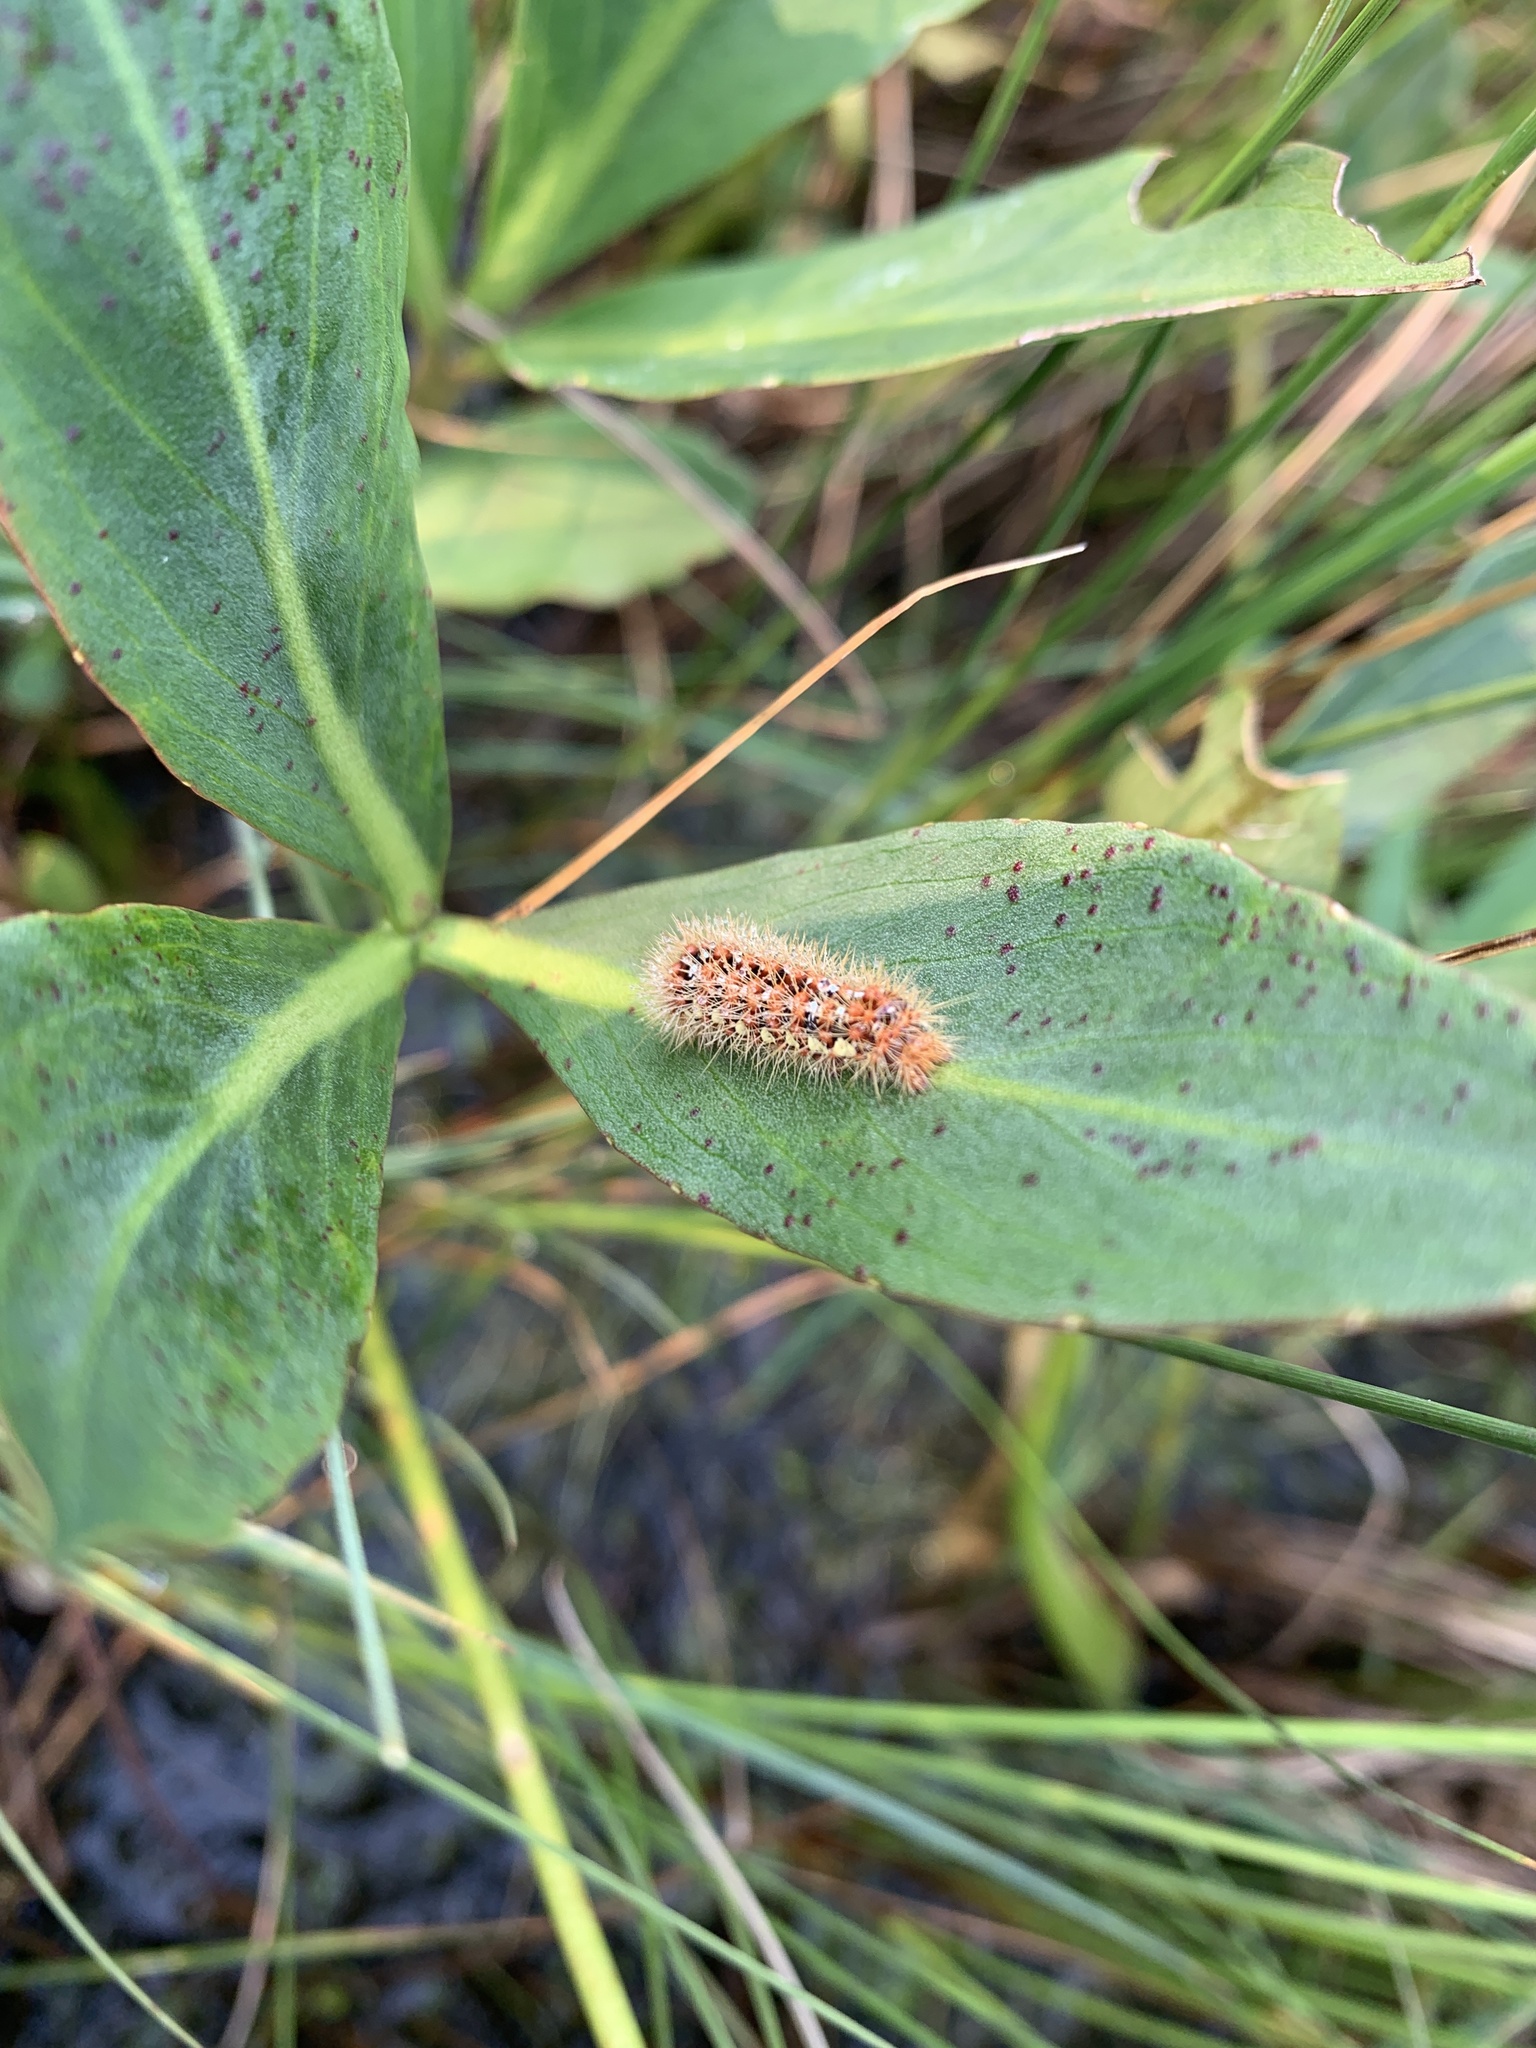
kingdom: Animalia
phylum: Arthropoda
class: Insecta
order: Lepidoptera
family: Noctuidae
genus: Acronicta
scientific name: Acronicta oblinita
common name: Smeared dagger
